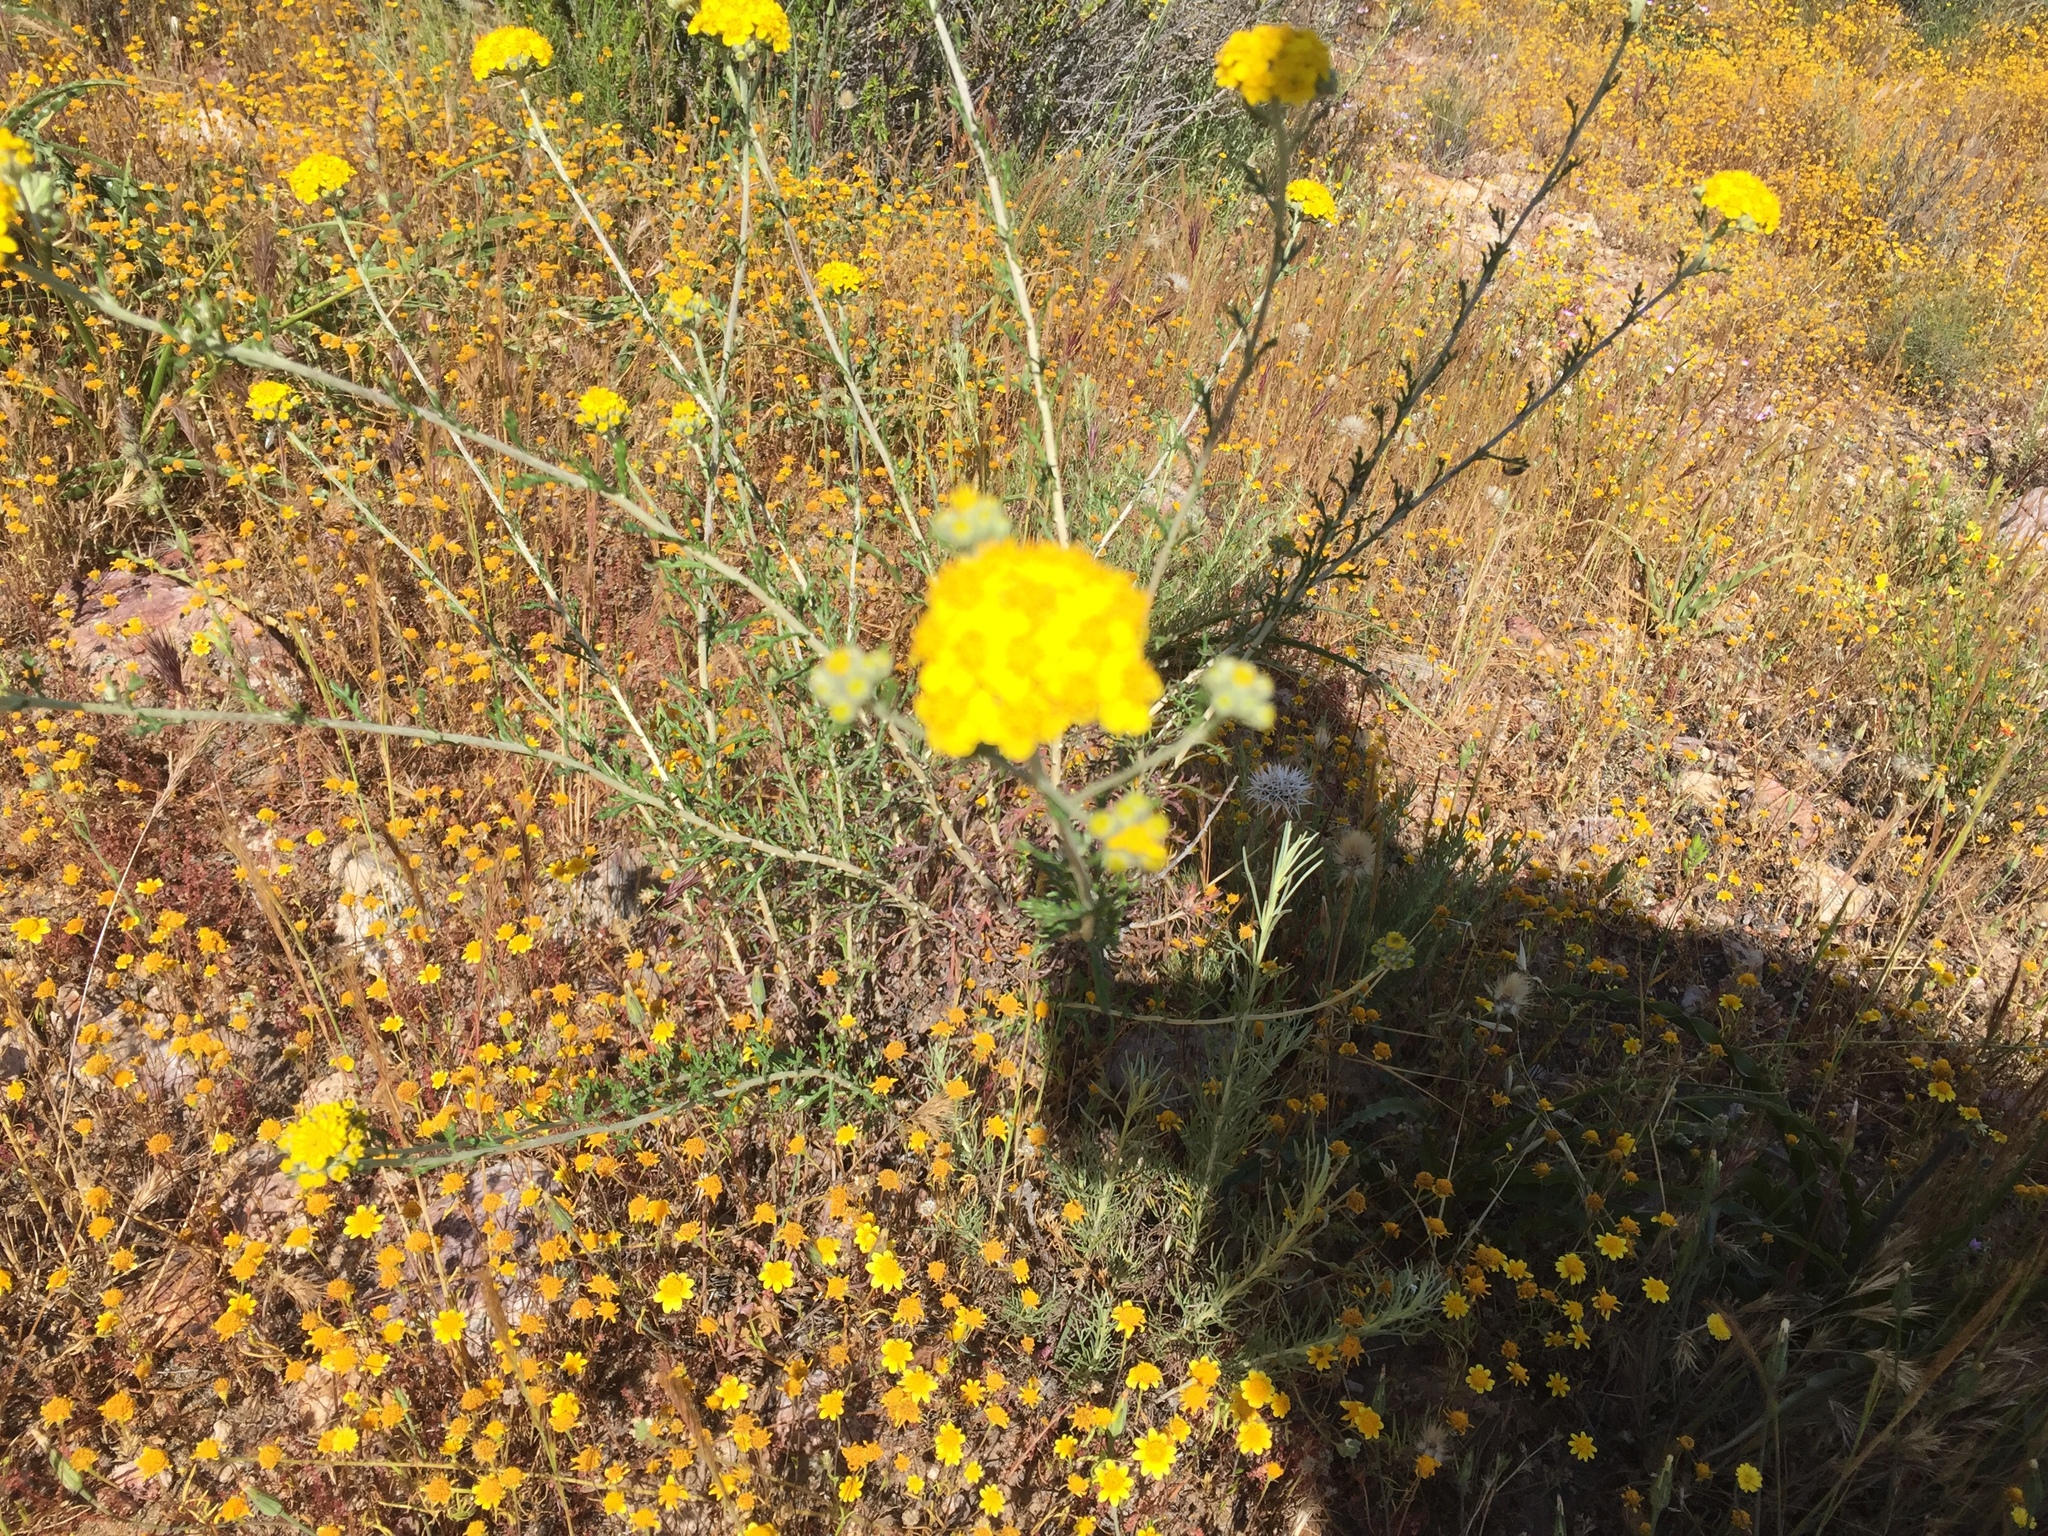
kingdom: Plantae
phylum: Tracheophyta
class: Magnoliopsida
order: Asterales
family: Asteraceae
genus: Eriophyllum
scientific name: Eriophyllum confertiflorum
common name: Golden-yarrow
